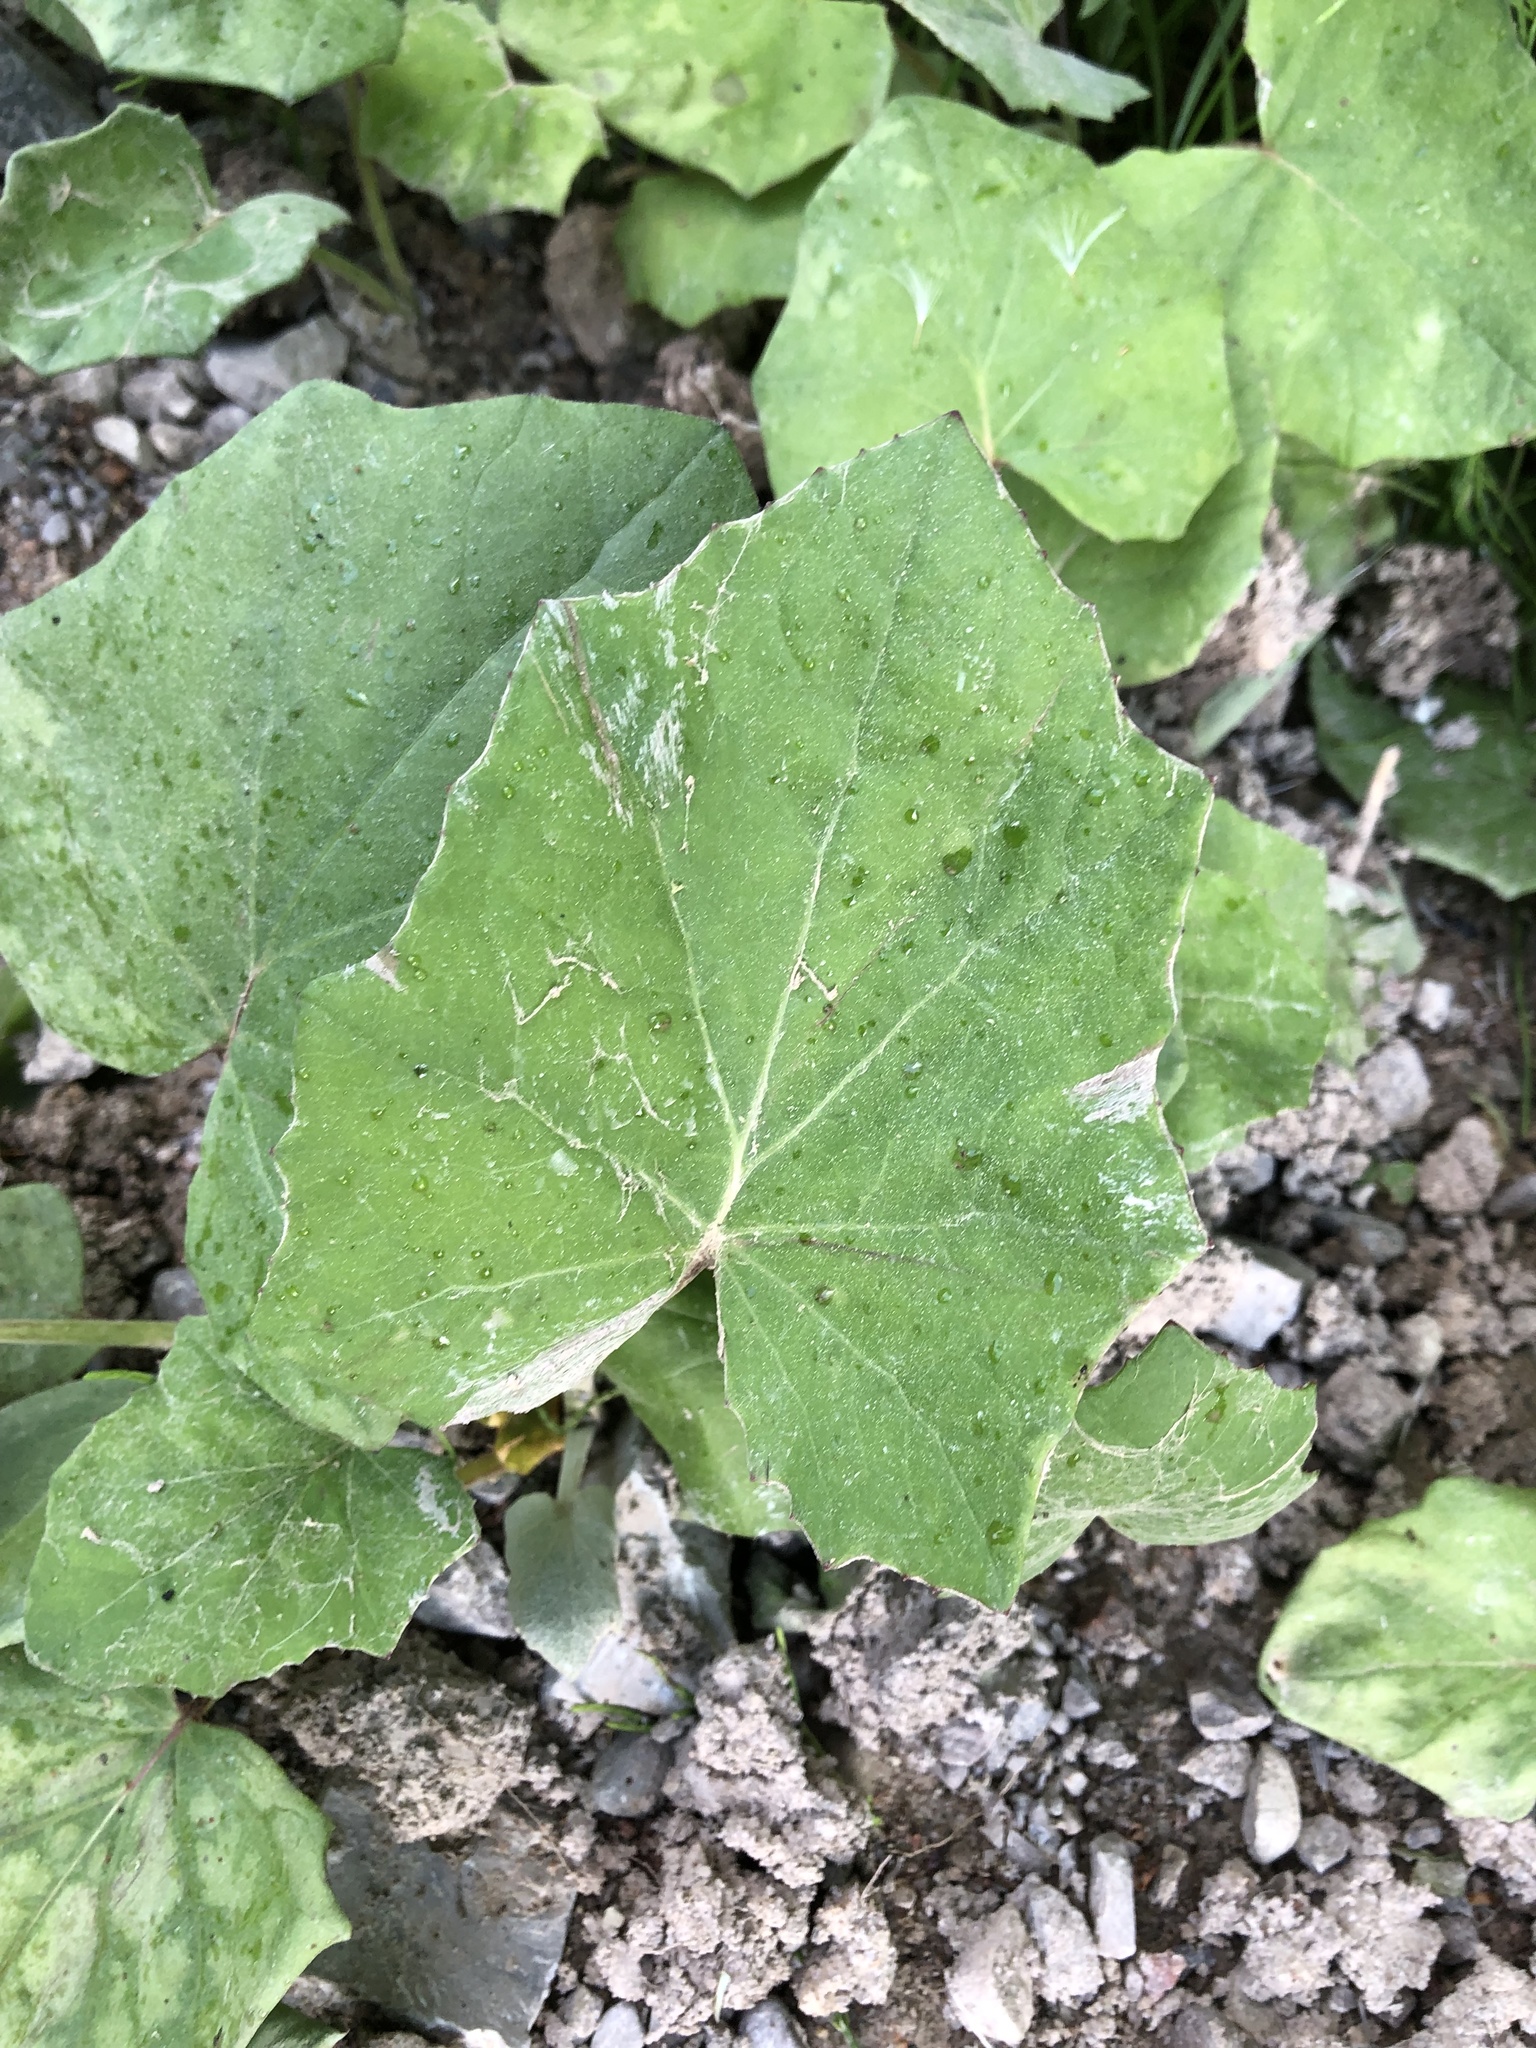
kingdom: Plantae
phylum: Tracheophyta
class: Magnoliopsida
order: Asterales
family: Asteraceae
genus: Tussilago
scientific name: Tussilago farfara
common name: Coltsfoot
